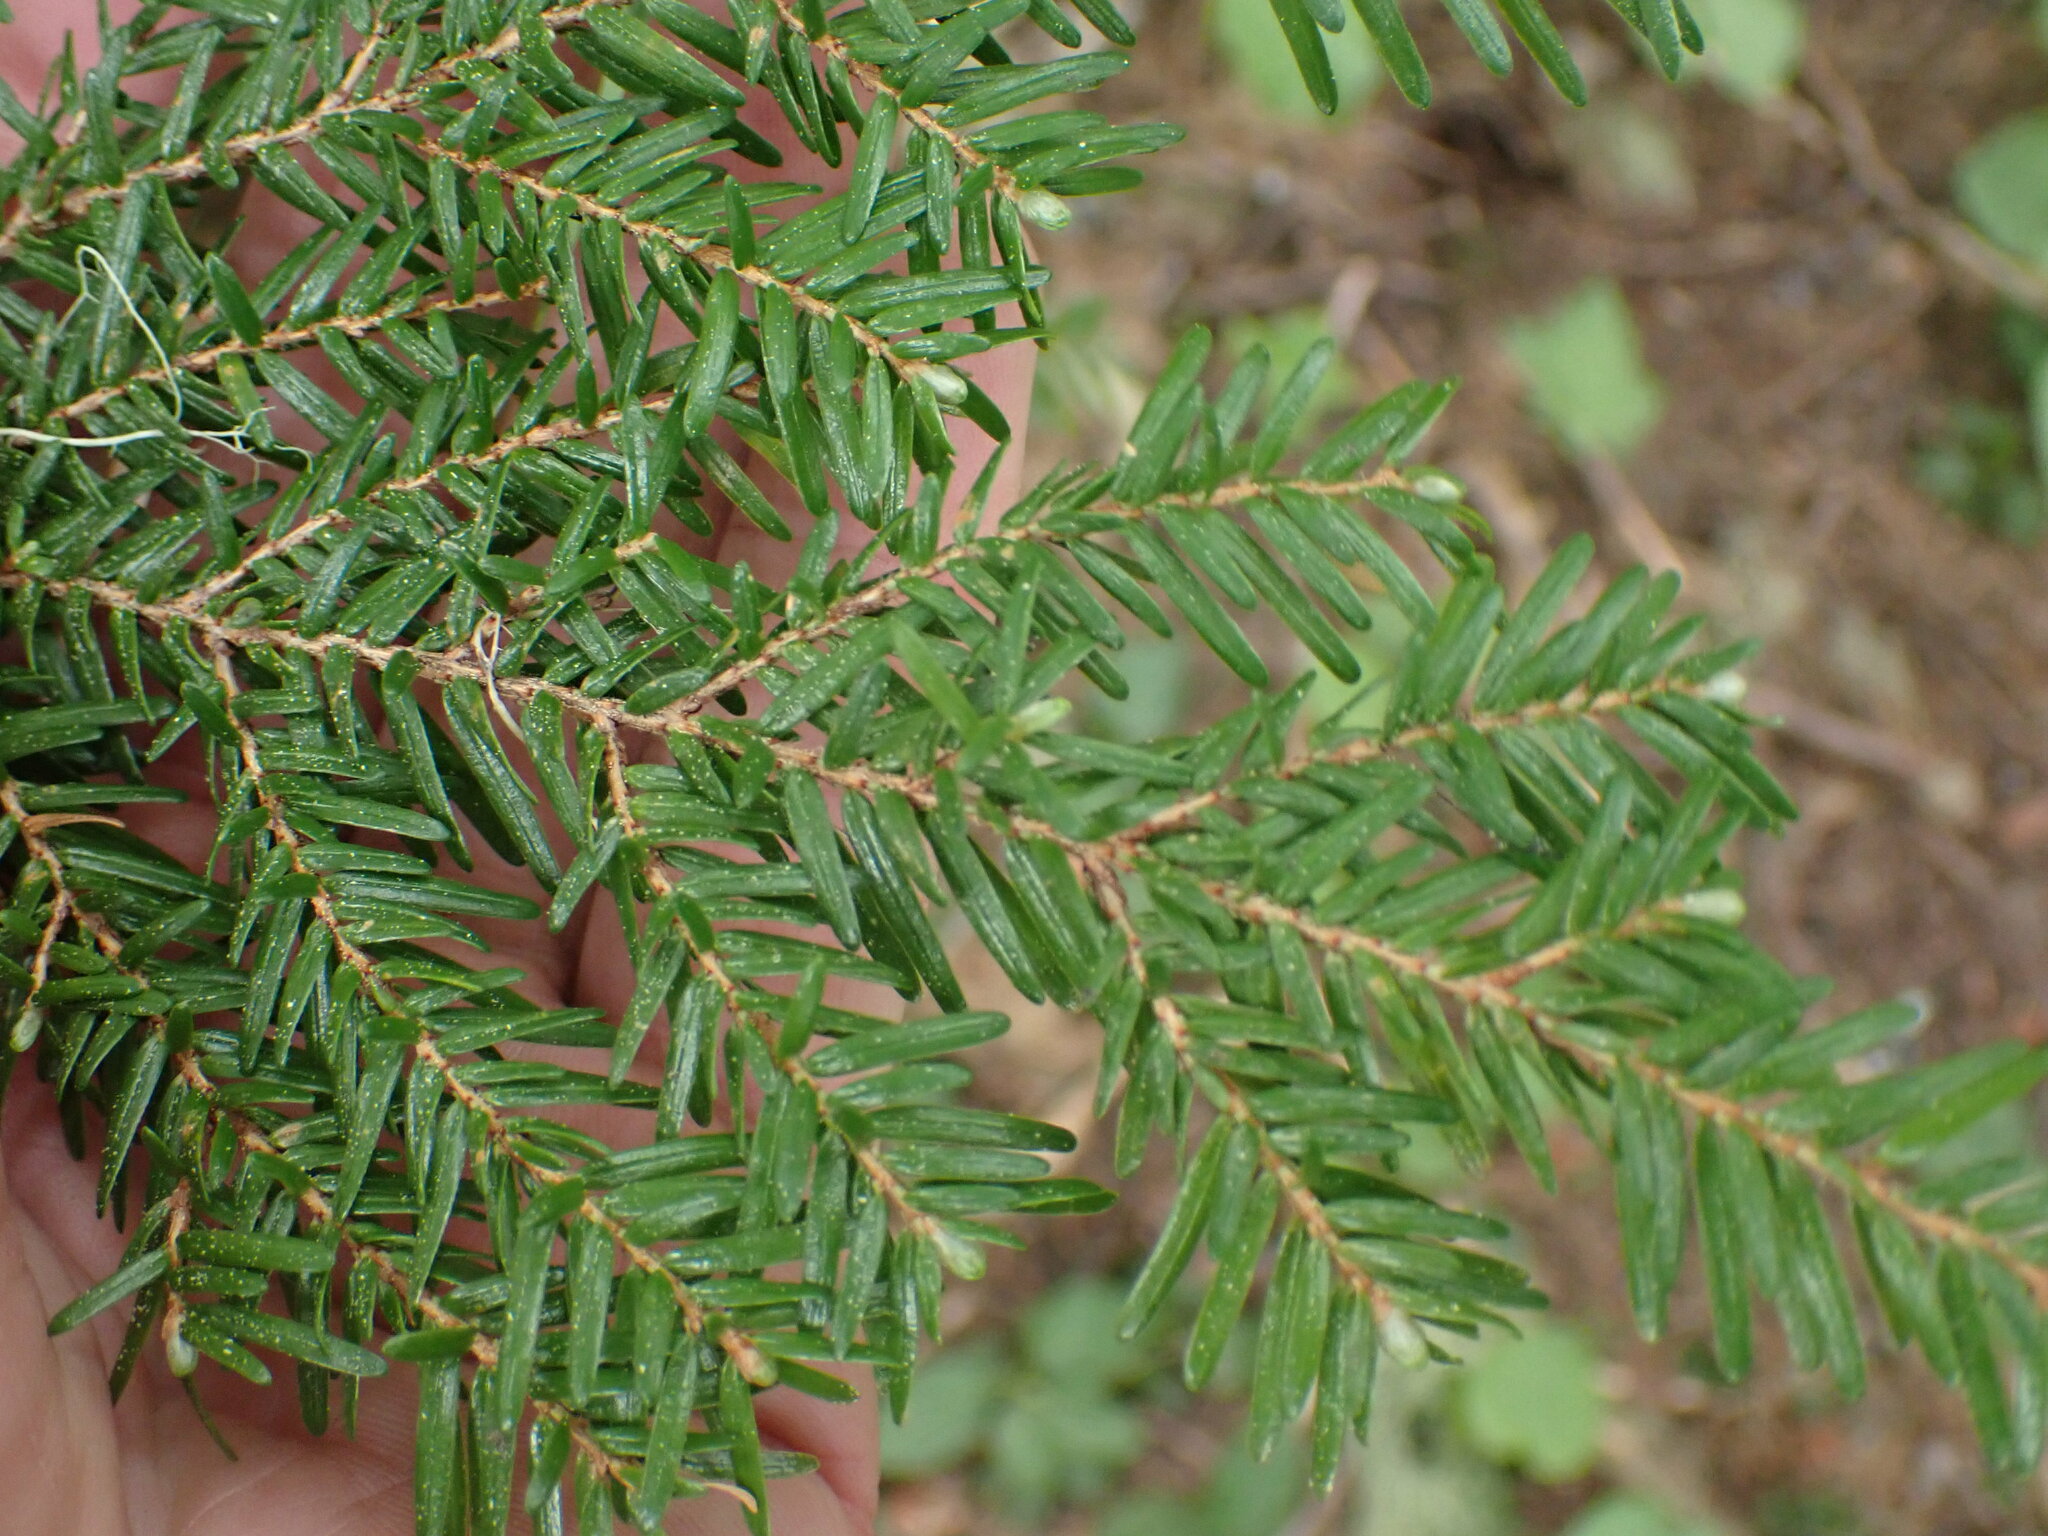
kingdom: Plantae
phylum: Tracheophyta
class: Pinopsida
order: Pinales
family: Pinaceae
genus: Tsuga
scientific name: Tsuga heterophylla
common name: Western hemlock
